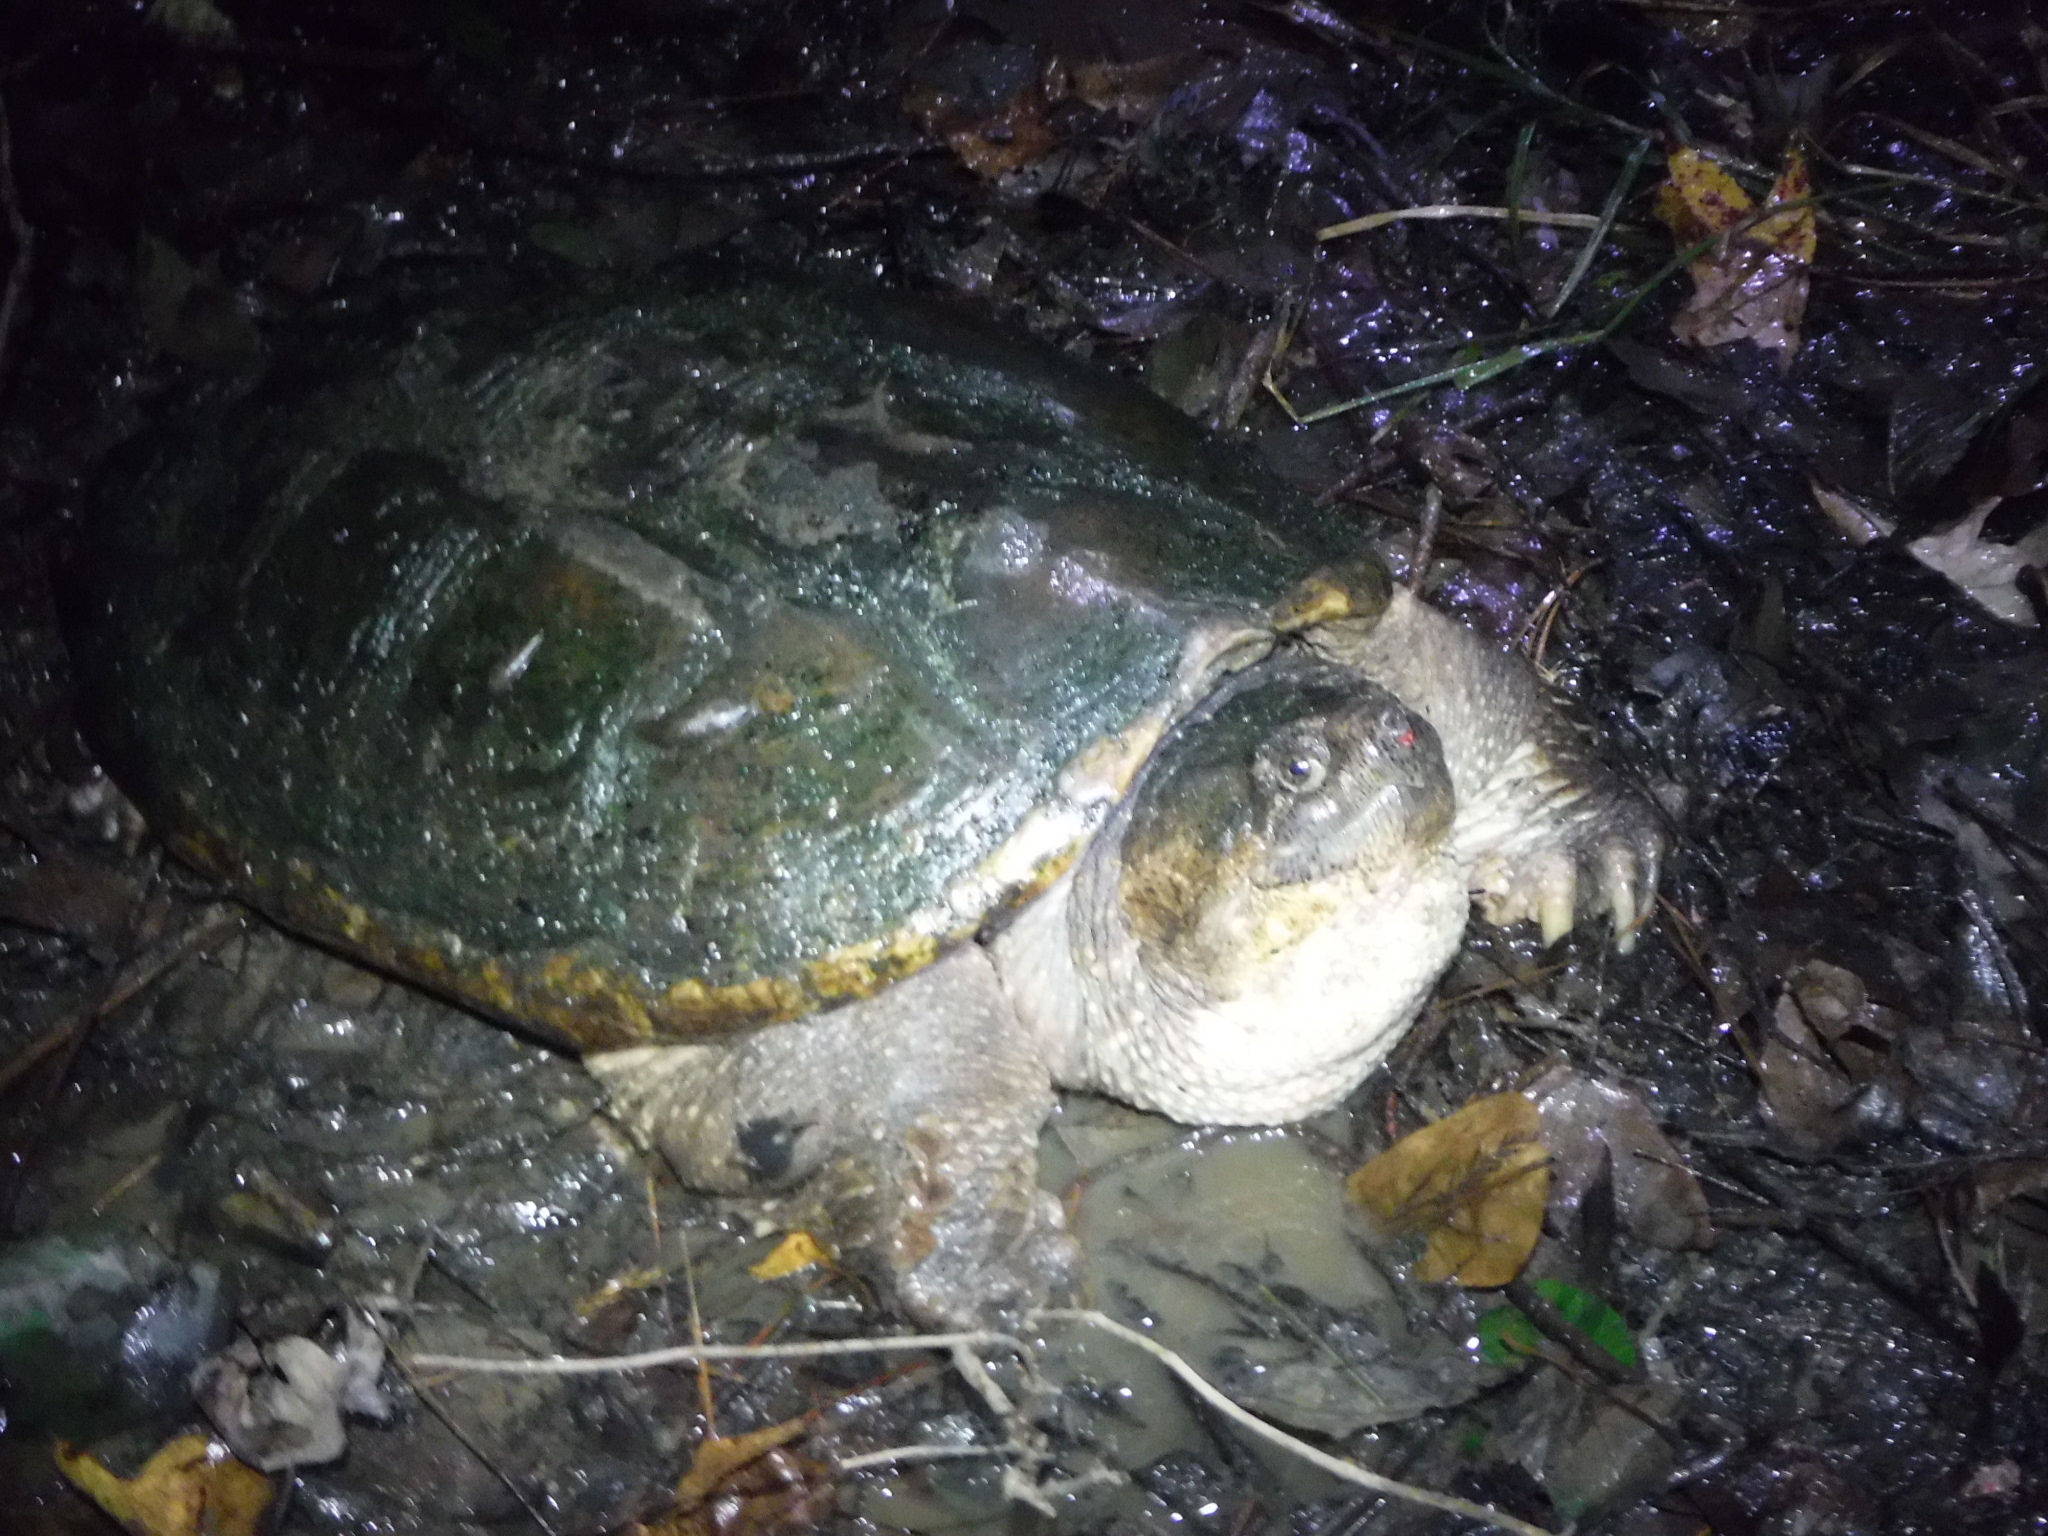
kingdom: Animalia
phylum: Chordata
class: Testudines
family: Chelydridae
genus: Chelydra
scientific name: Chelydra serpentina
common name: Common snapping turtle
